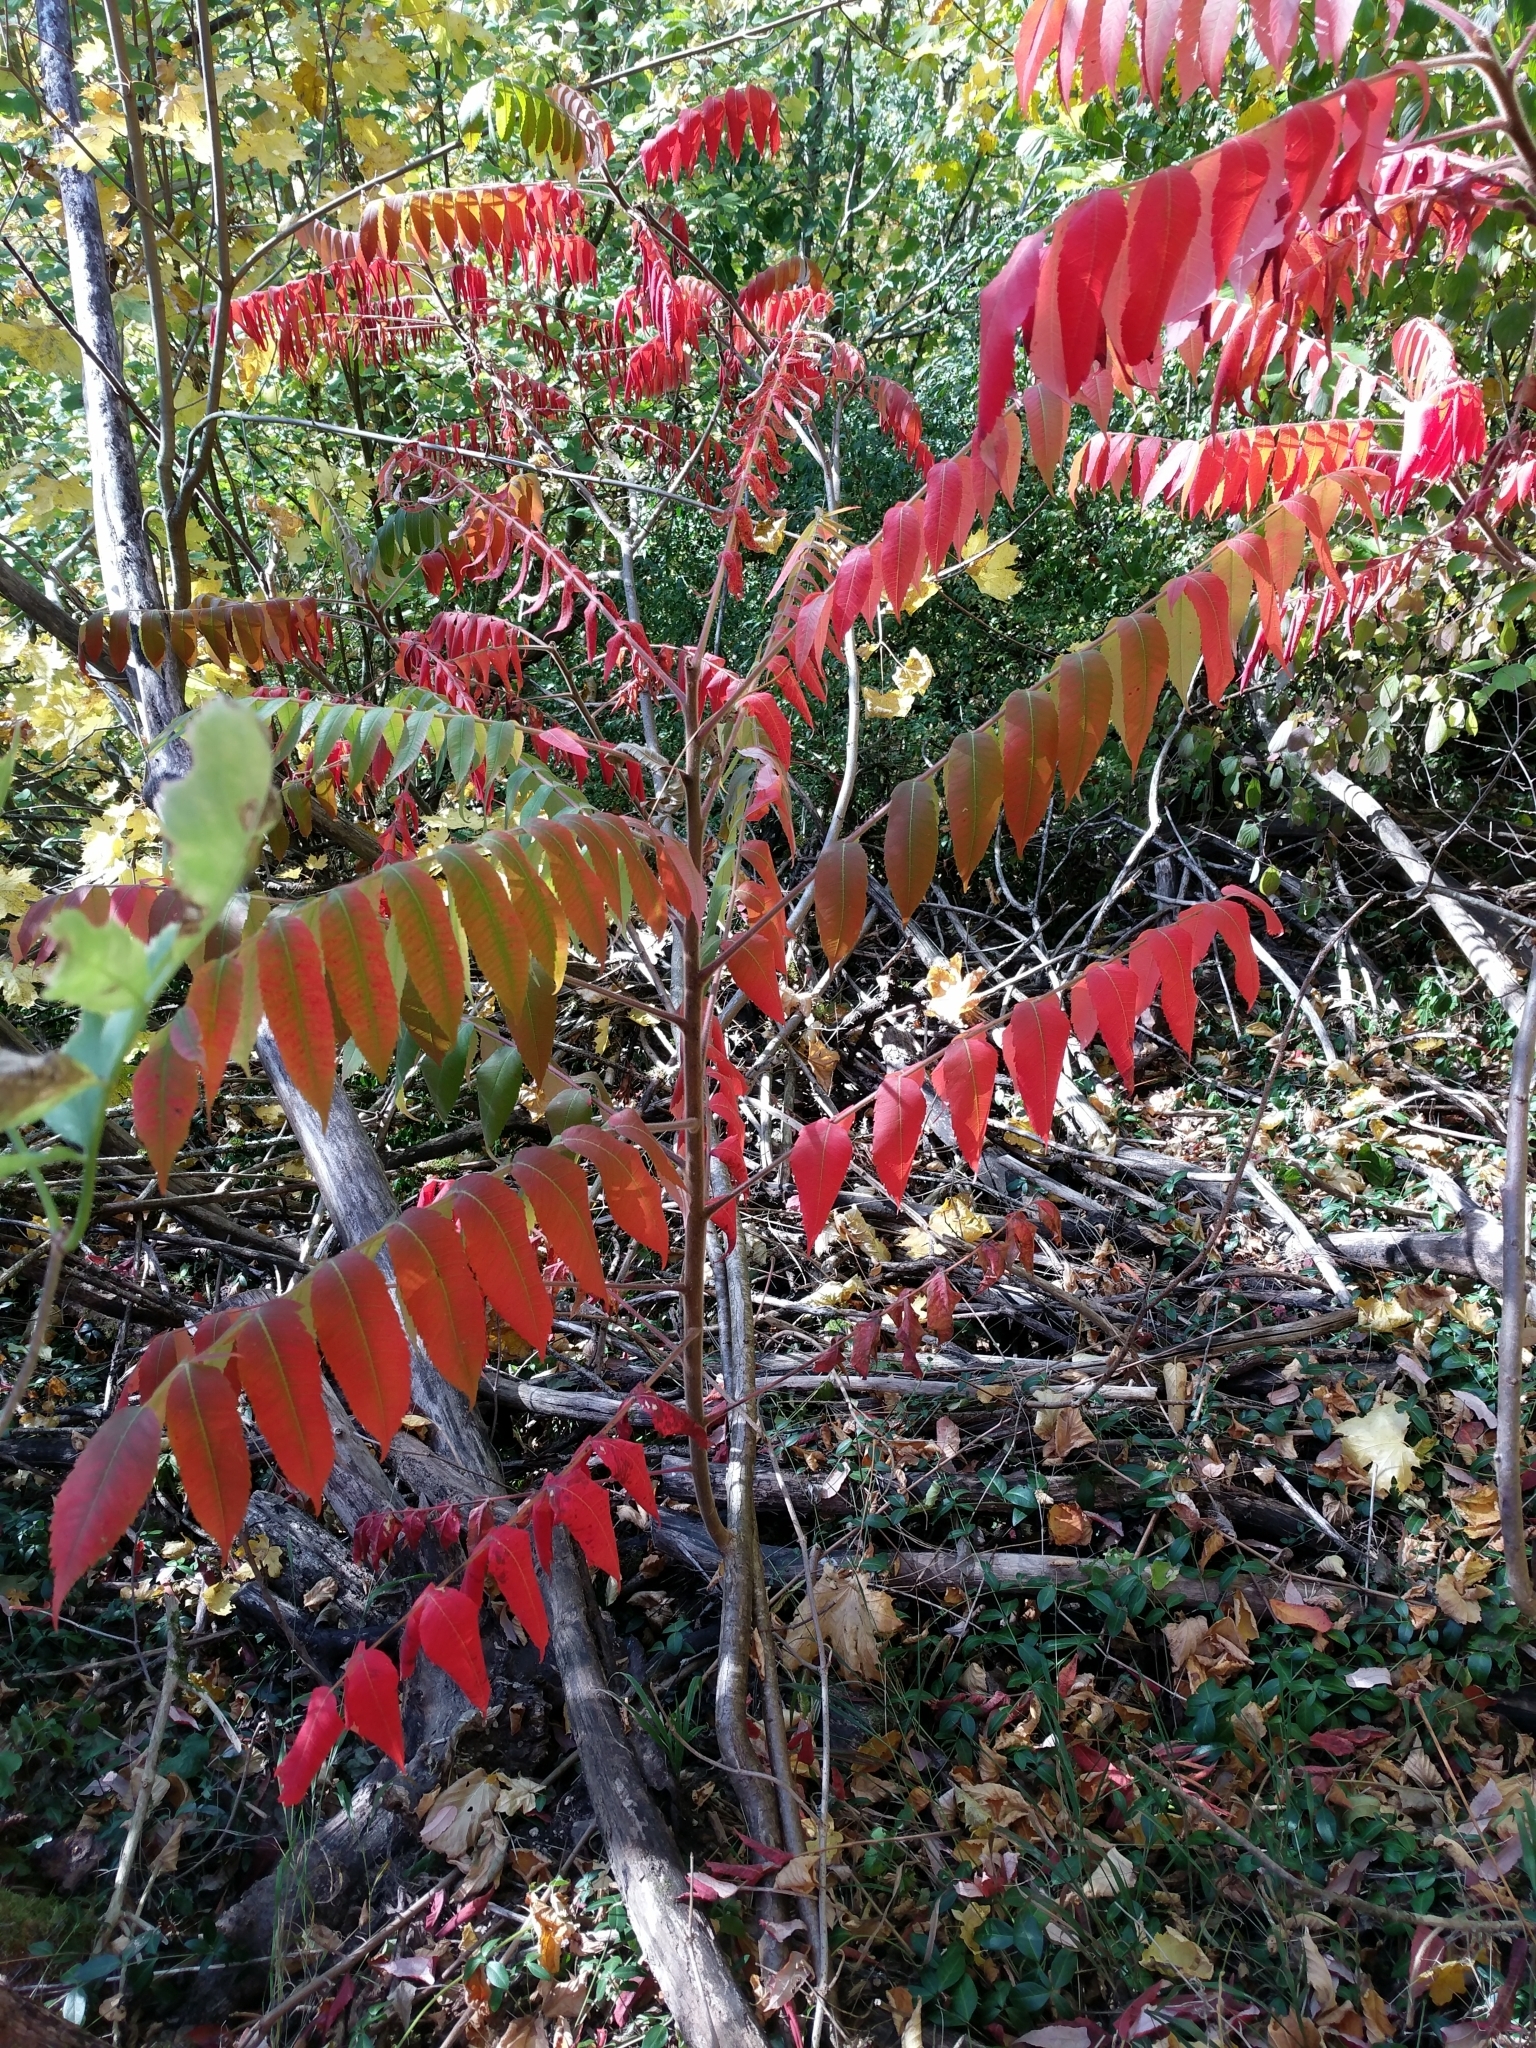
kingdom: Plantae
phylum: Tracheophyta
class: Magnoliopsida
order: Sapindales
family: Anacardiaceae
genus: Rhus
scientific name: Rhus typhina
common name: Staghorn sumac
